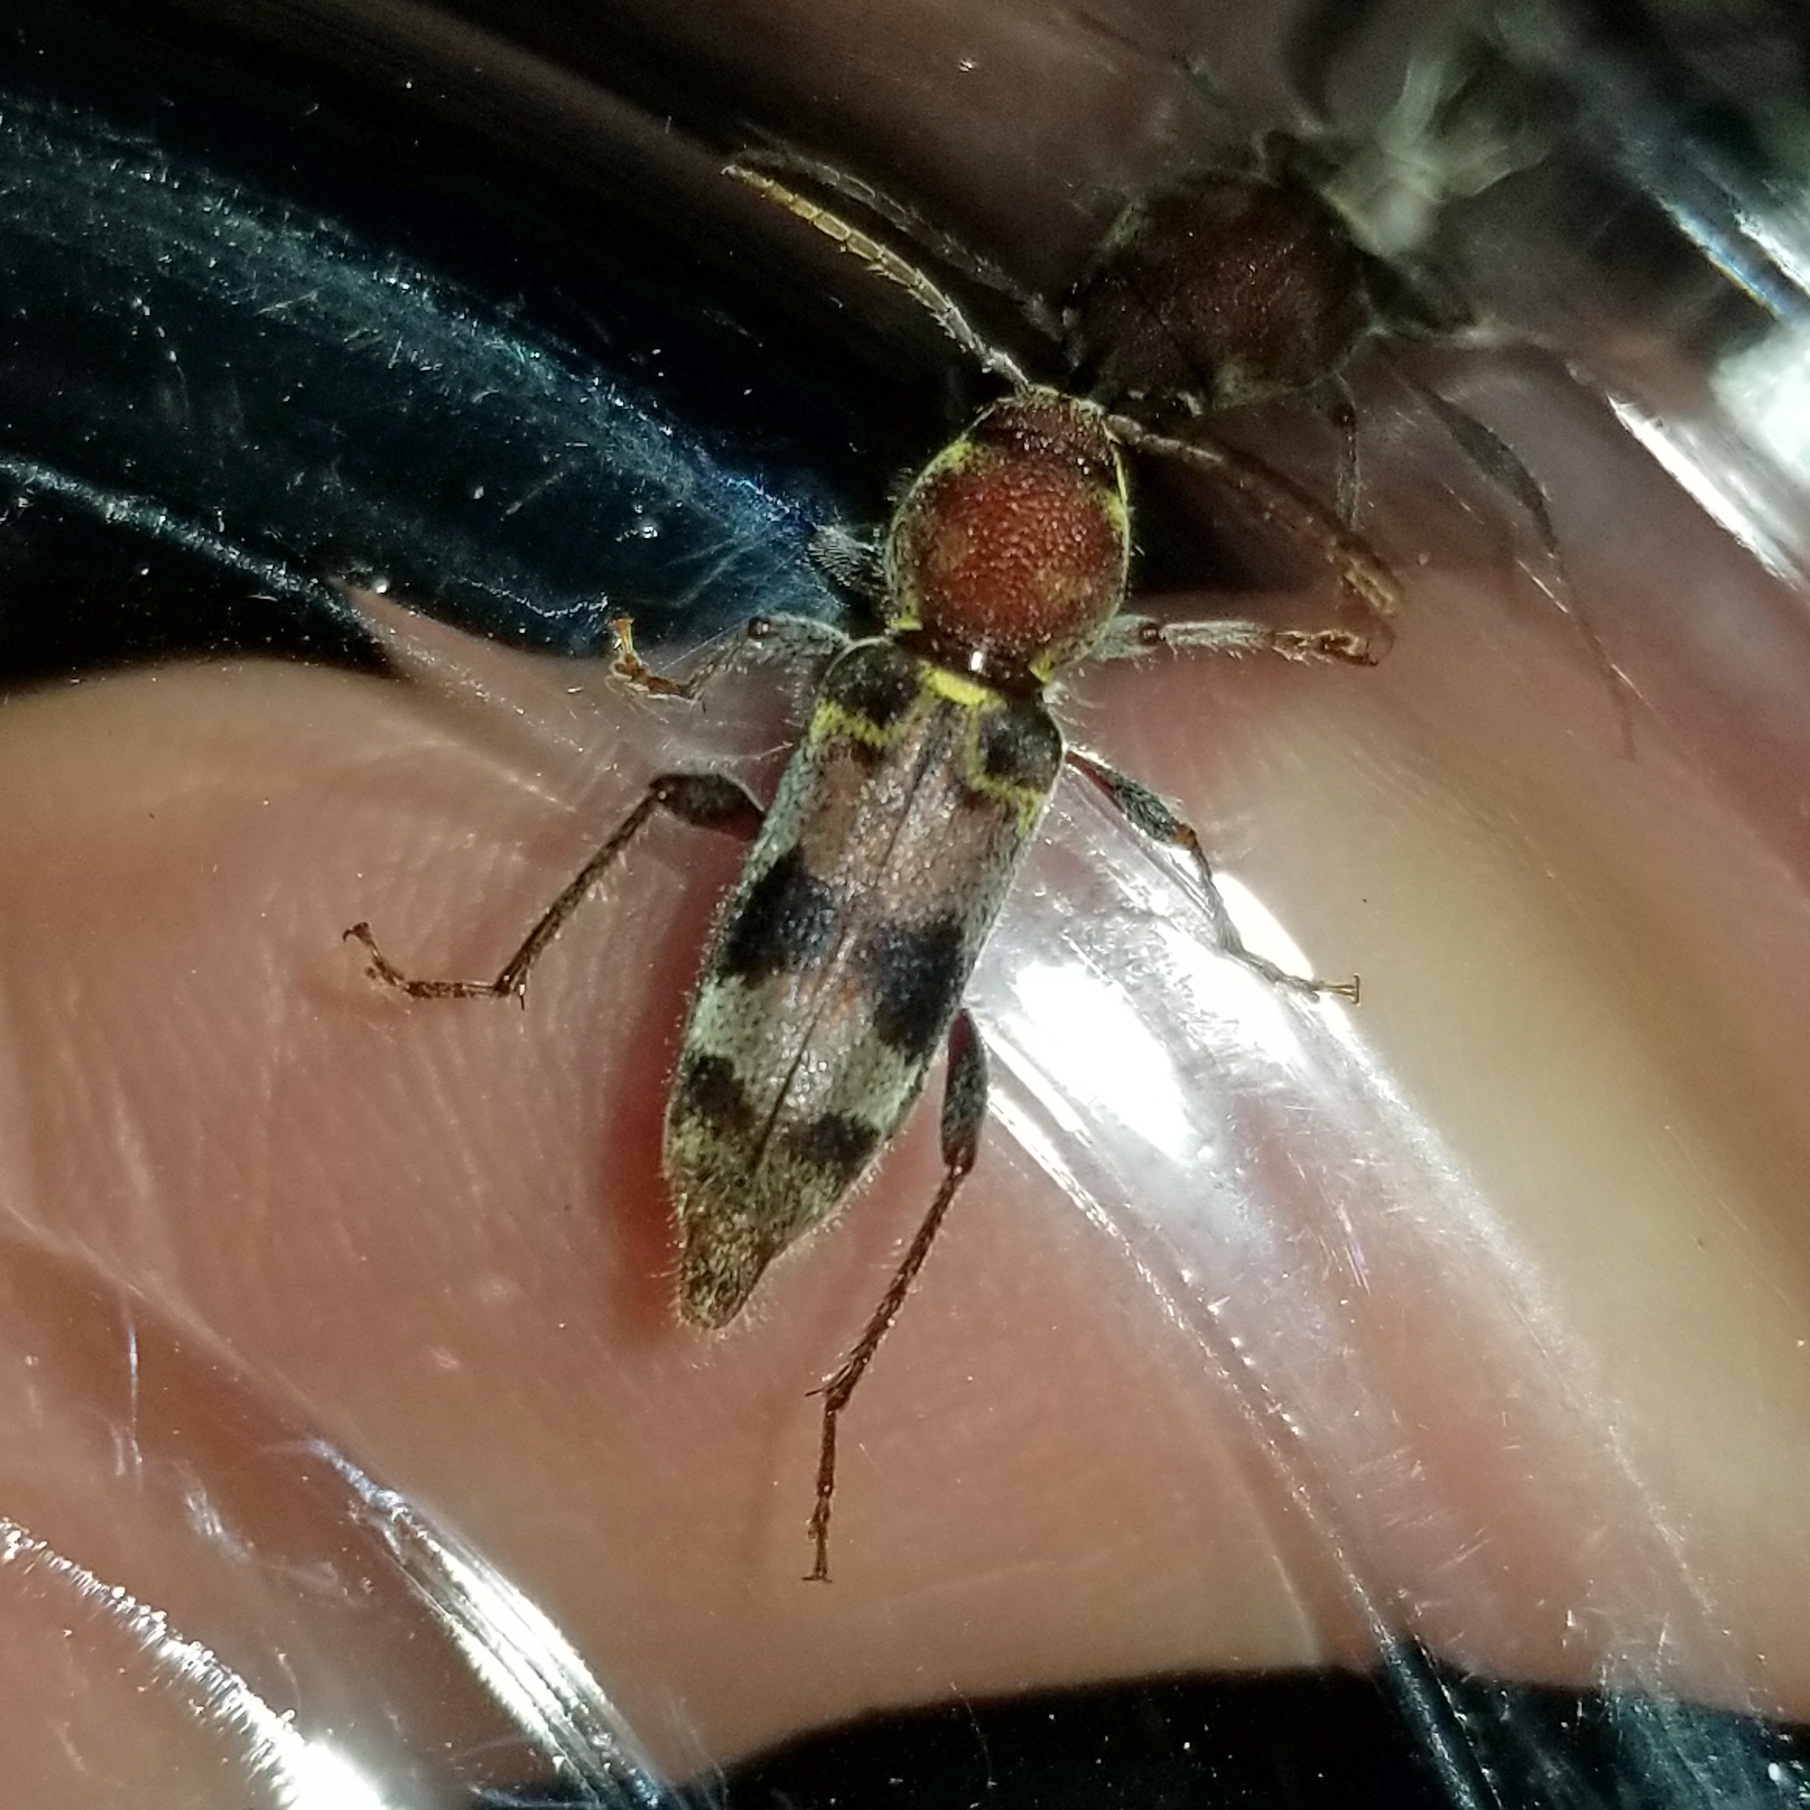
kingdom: Animalia
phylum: Arthropoda
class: Insecta
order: Coleoptera
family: Cerambycidae
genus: Xylotrechus
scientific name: Xylotrechus colonus
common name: Long-horned beetle
